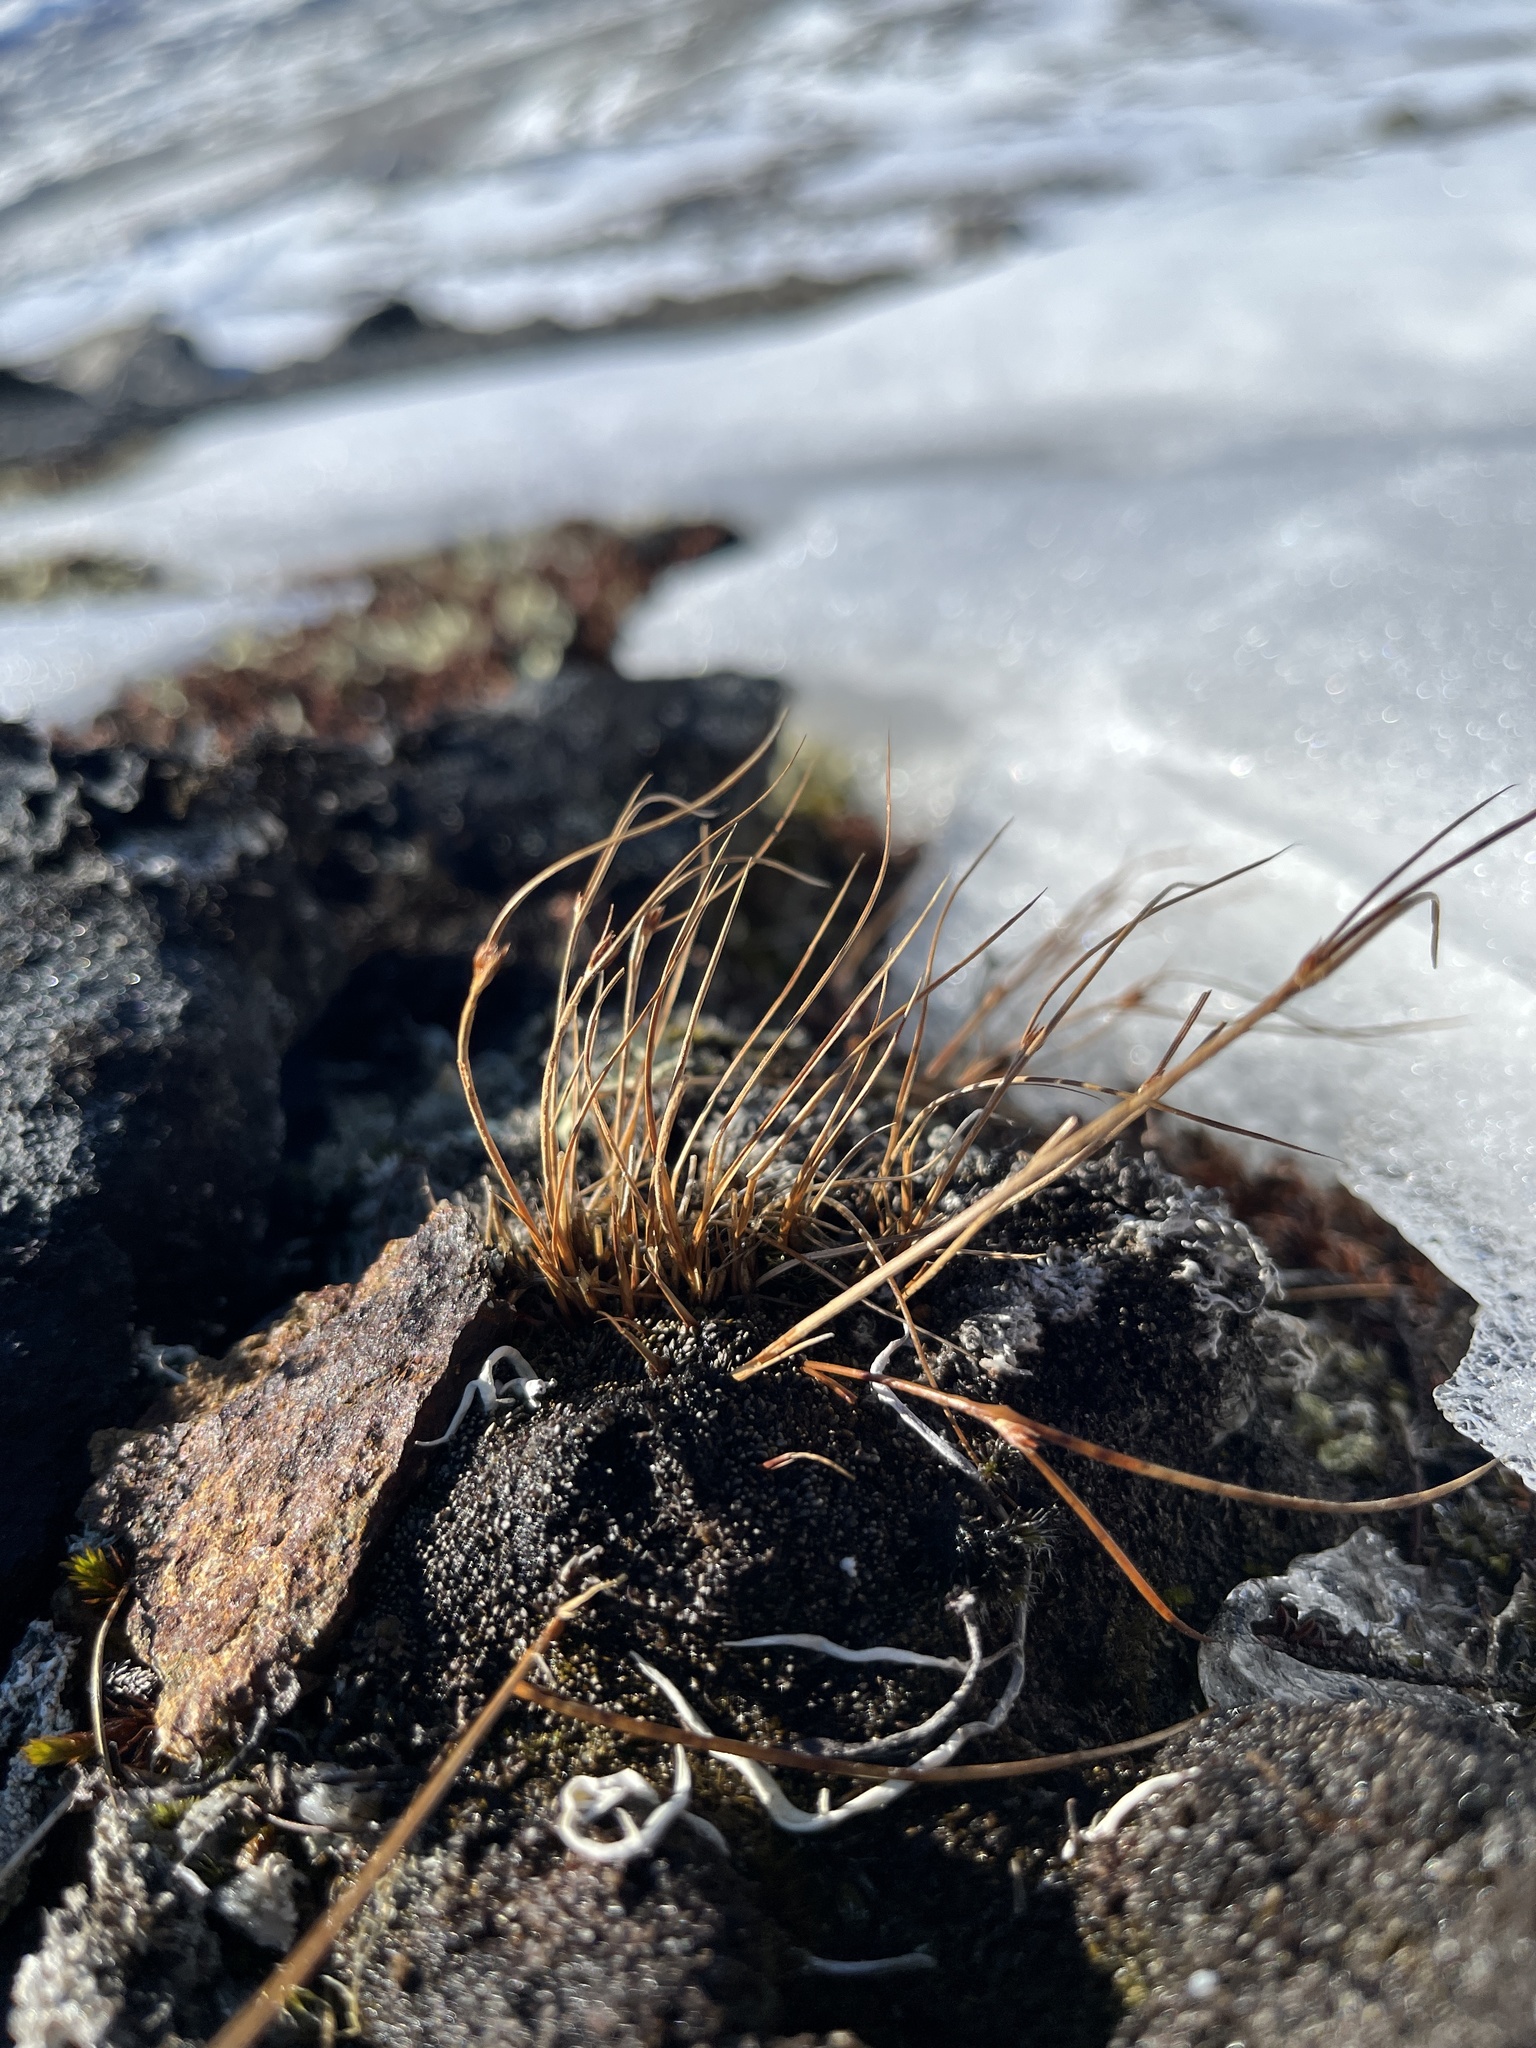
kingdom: Plantae
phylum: Tracheophyta
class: Liliopsida
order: Poales
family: Juncaceae
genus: Oreojuncus
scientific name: Oreojuncus trifidus
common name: Highland rush
